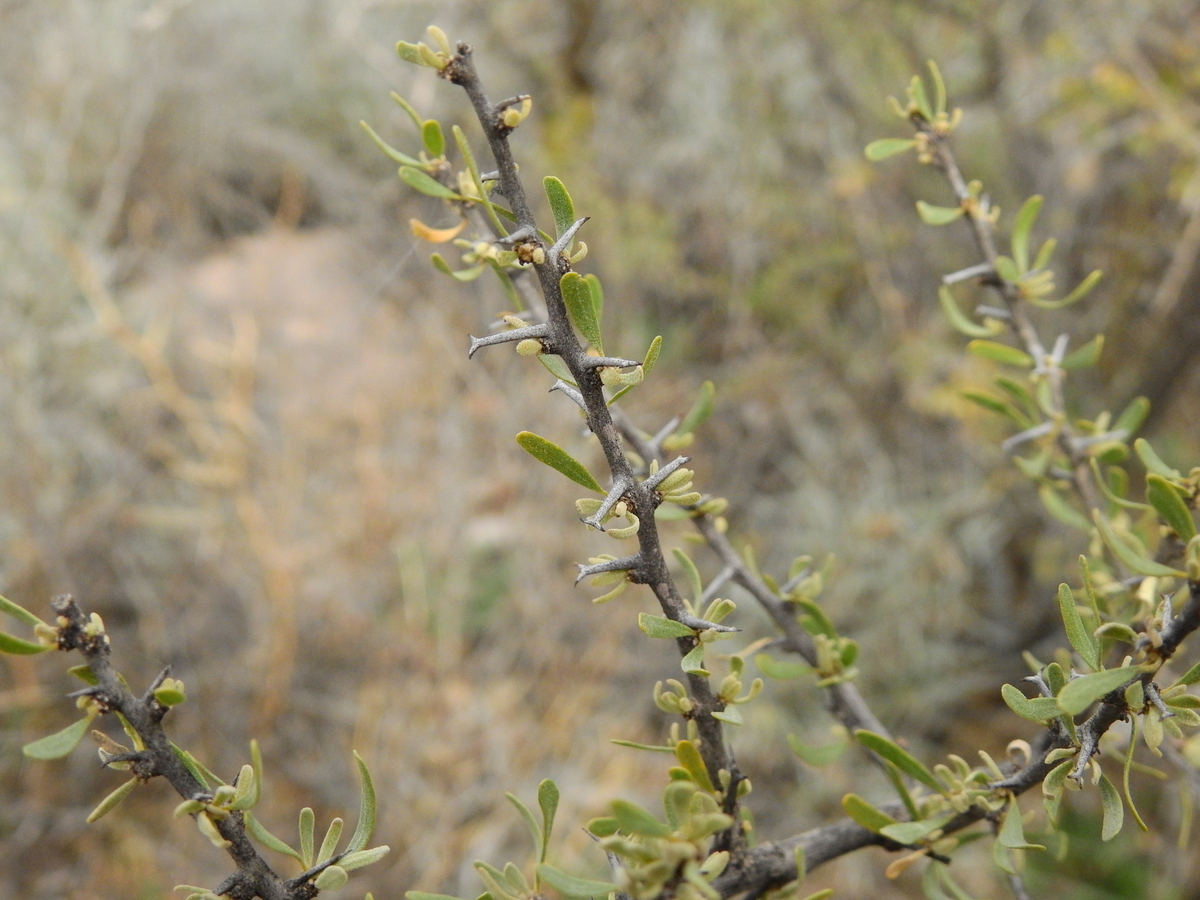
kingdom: Plantae
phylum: Tracheophyta
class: Magnoliopsida
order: Caryophyllales
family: Nyctaginaceae
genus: Bougainvillea
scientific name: Bougainvillea spinosa
